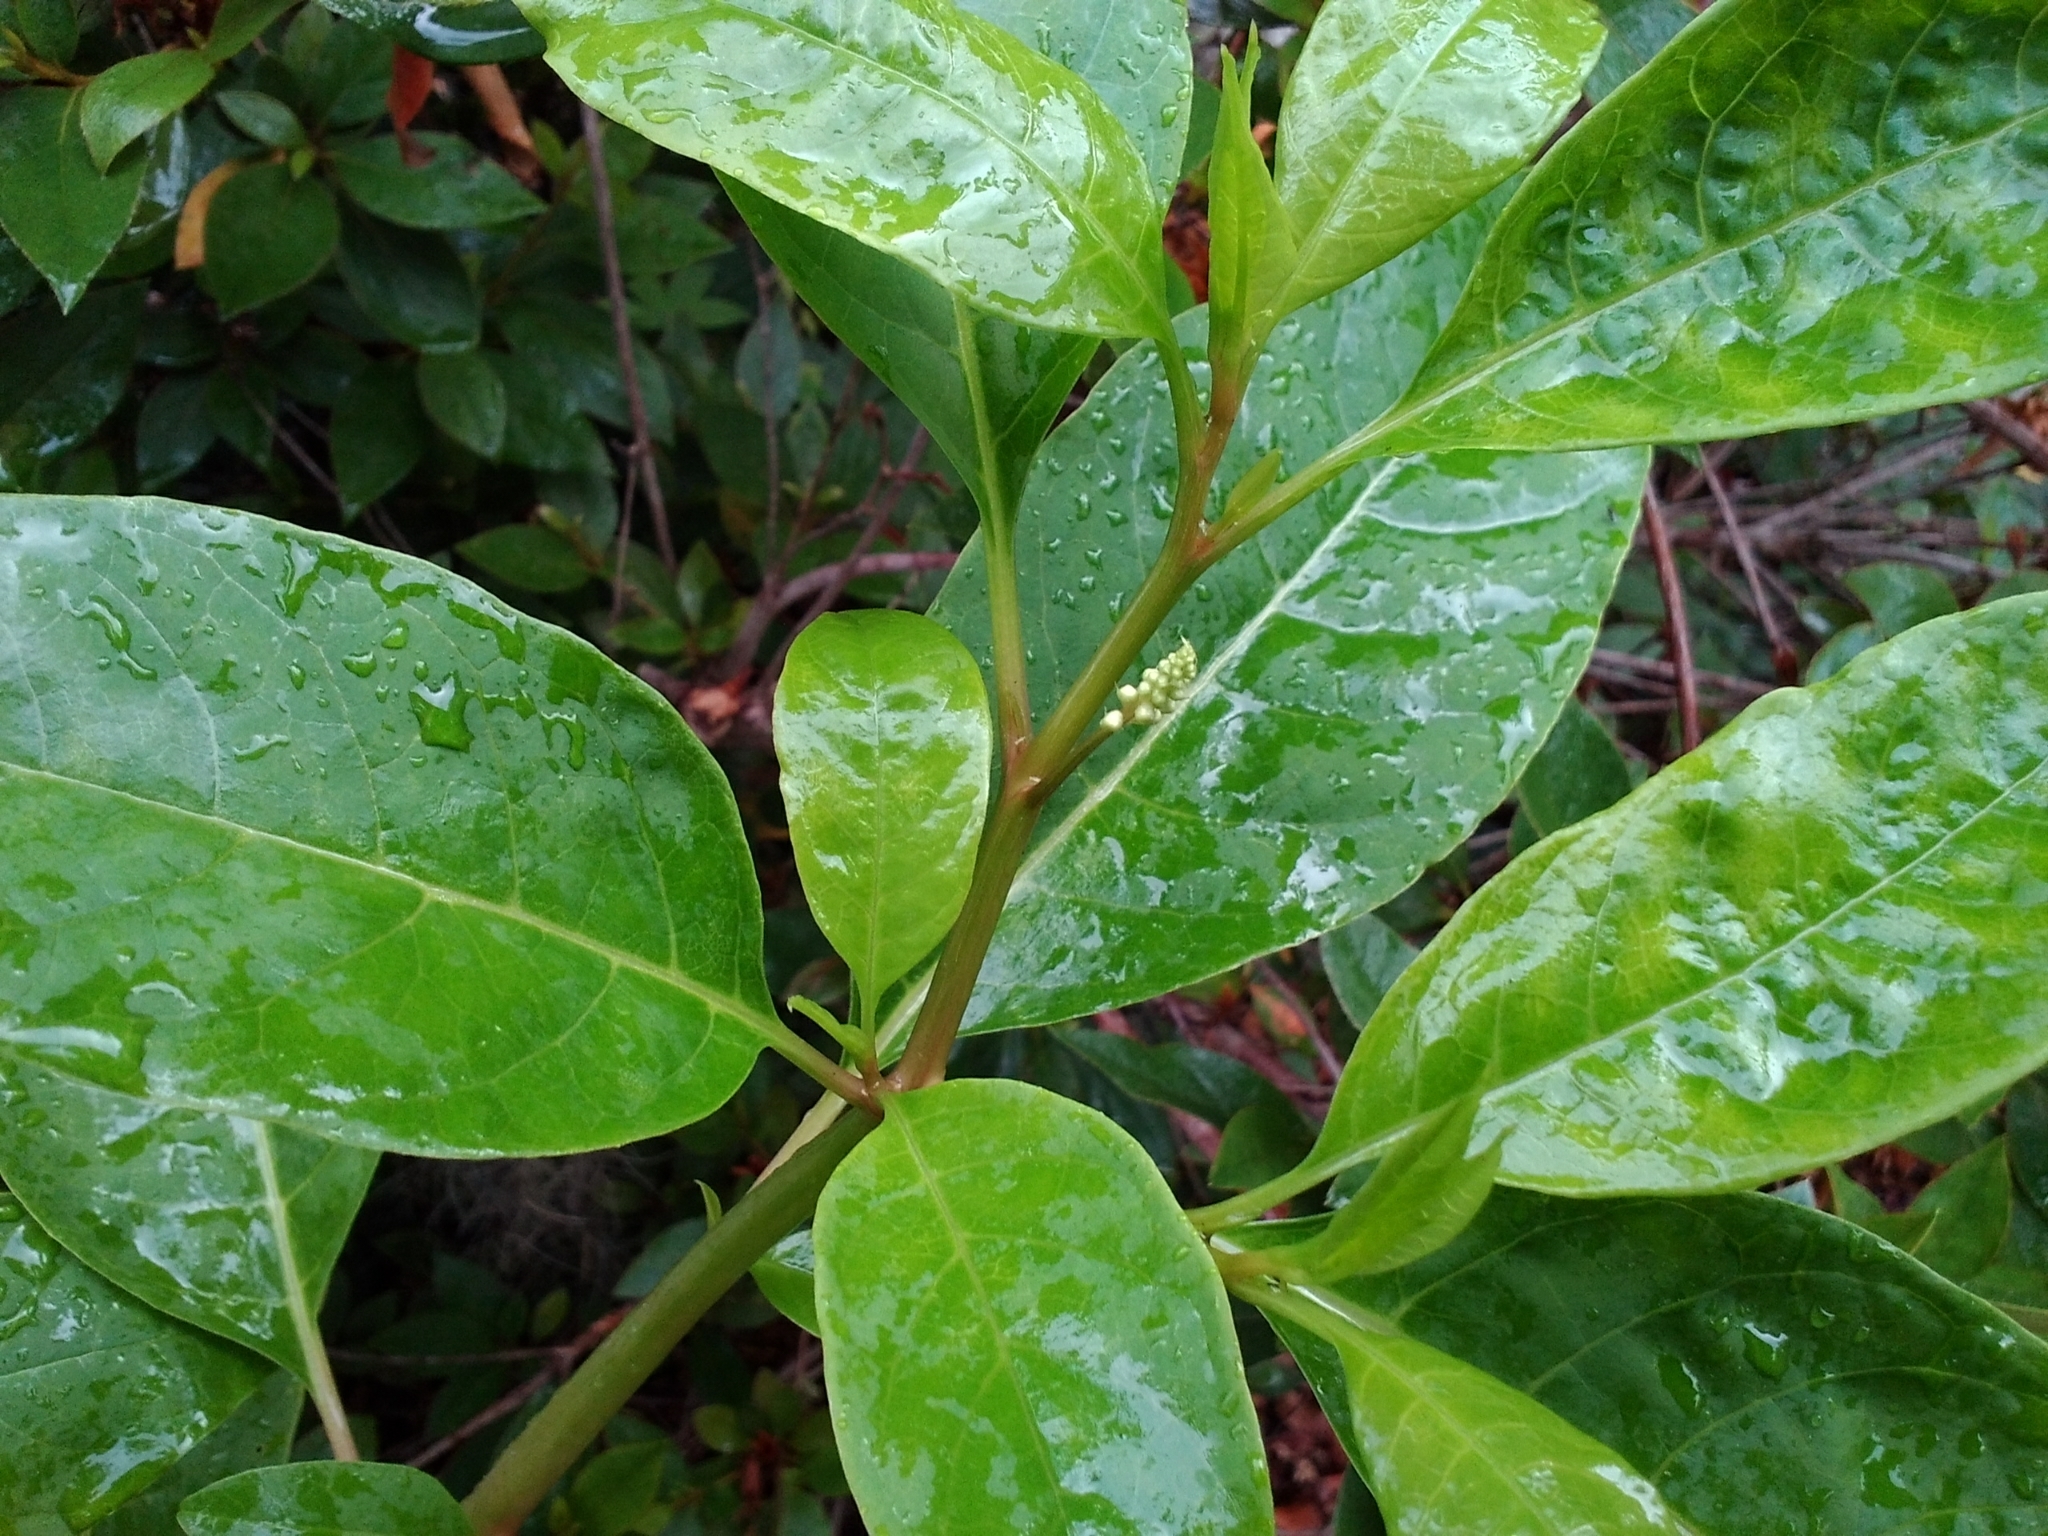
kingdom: Plantae
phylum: Tracheophyta
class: Magnoliopsida
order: Caryophyllales
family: Phytolaccaceae
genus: Phytolacca
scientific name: Phytolacca americana
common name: American pokeweed
